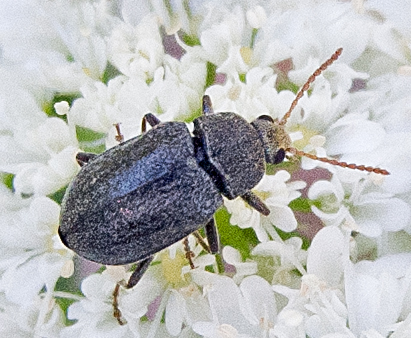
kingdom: Animalia
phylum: Arthropoda
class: Insecta
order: Coleoptera
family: Mycteridae
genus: Mycterus
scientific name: Mycterus tibialis
